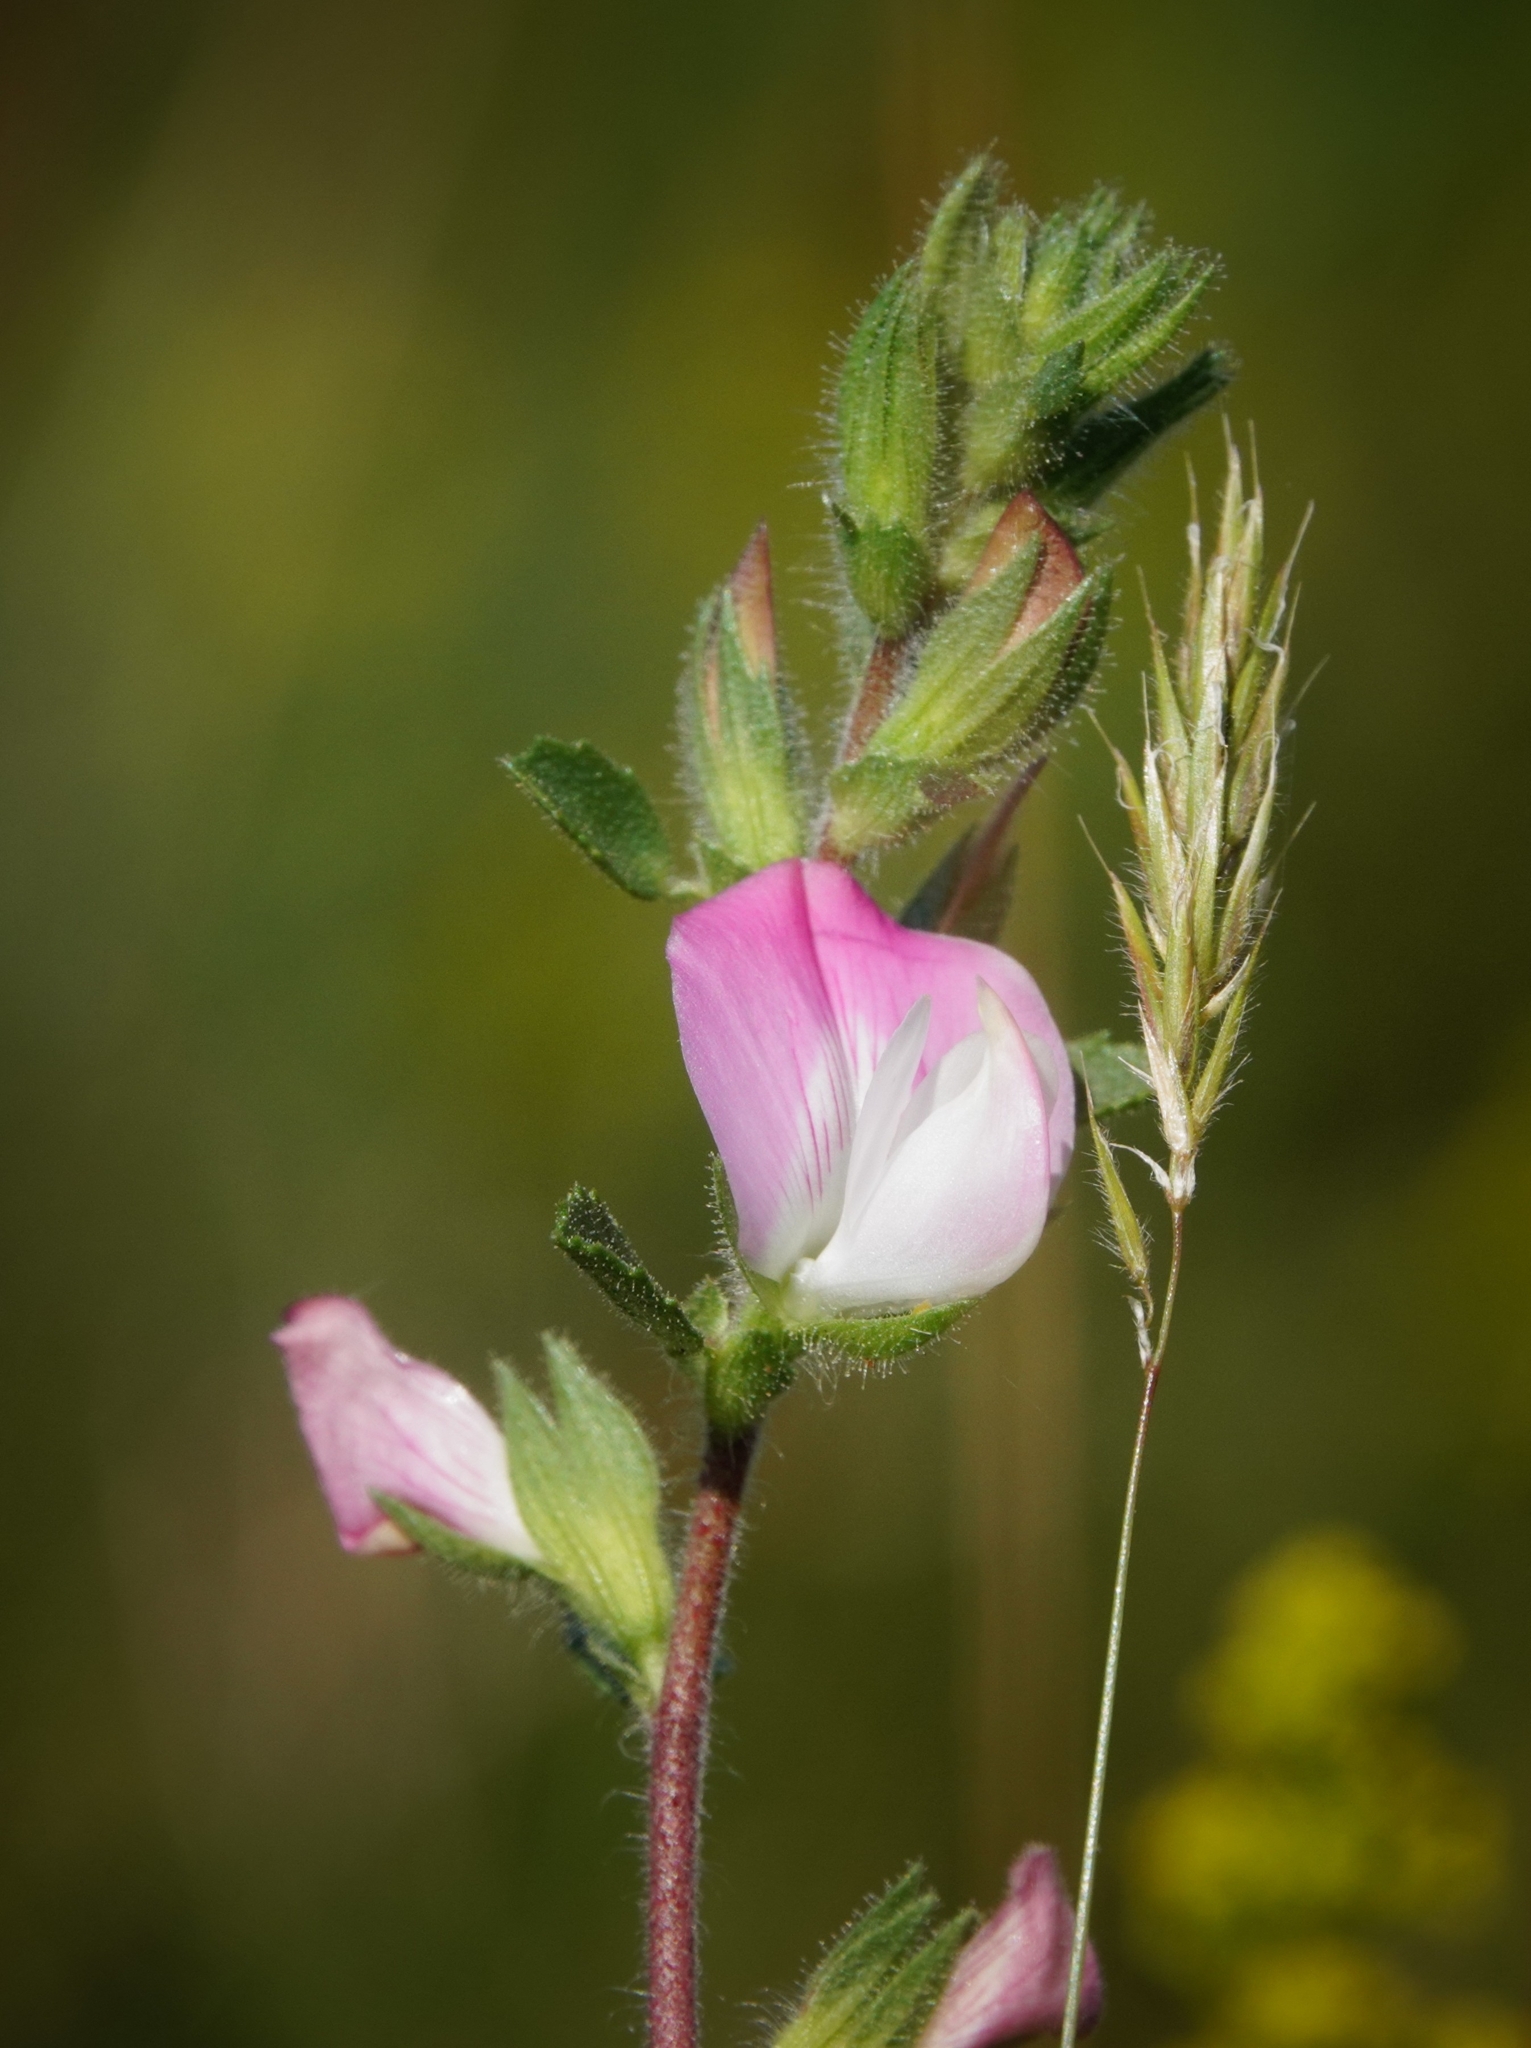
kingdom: Plantae
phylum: Tracheophyta
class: Magnoliopsida
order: Fabales
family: Fabaceae
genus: Ononis
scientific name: Ononis spinosa
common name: Spiny restharrow
